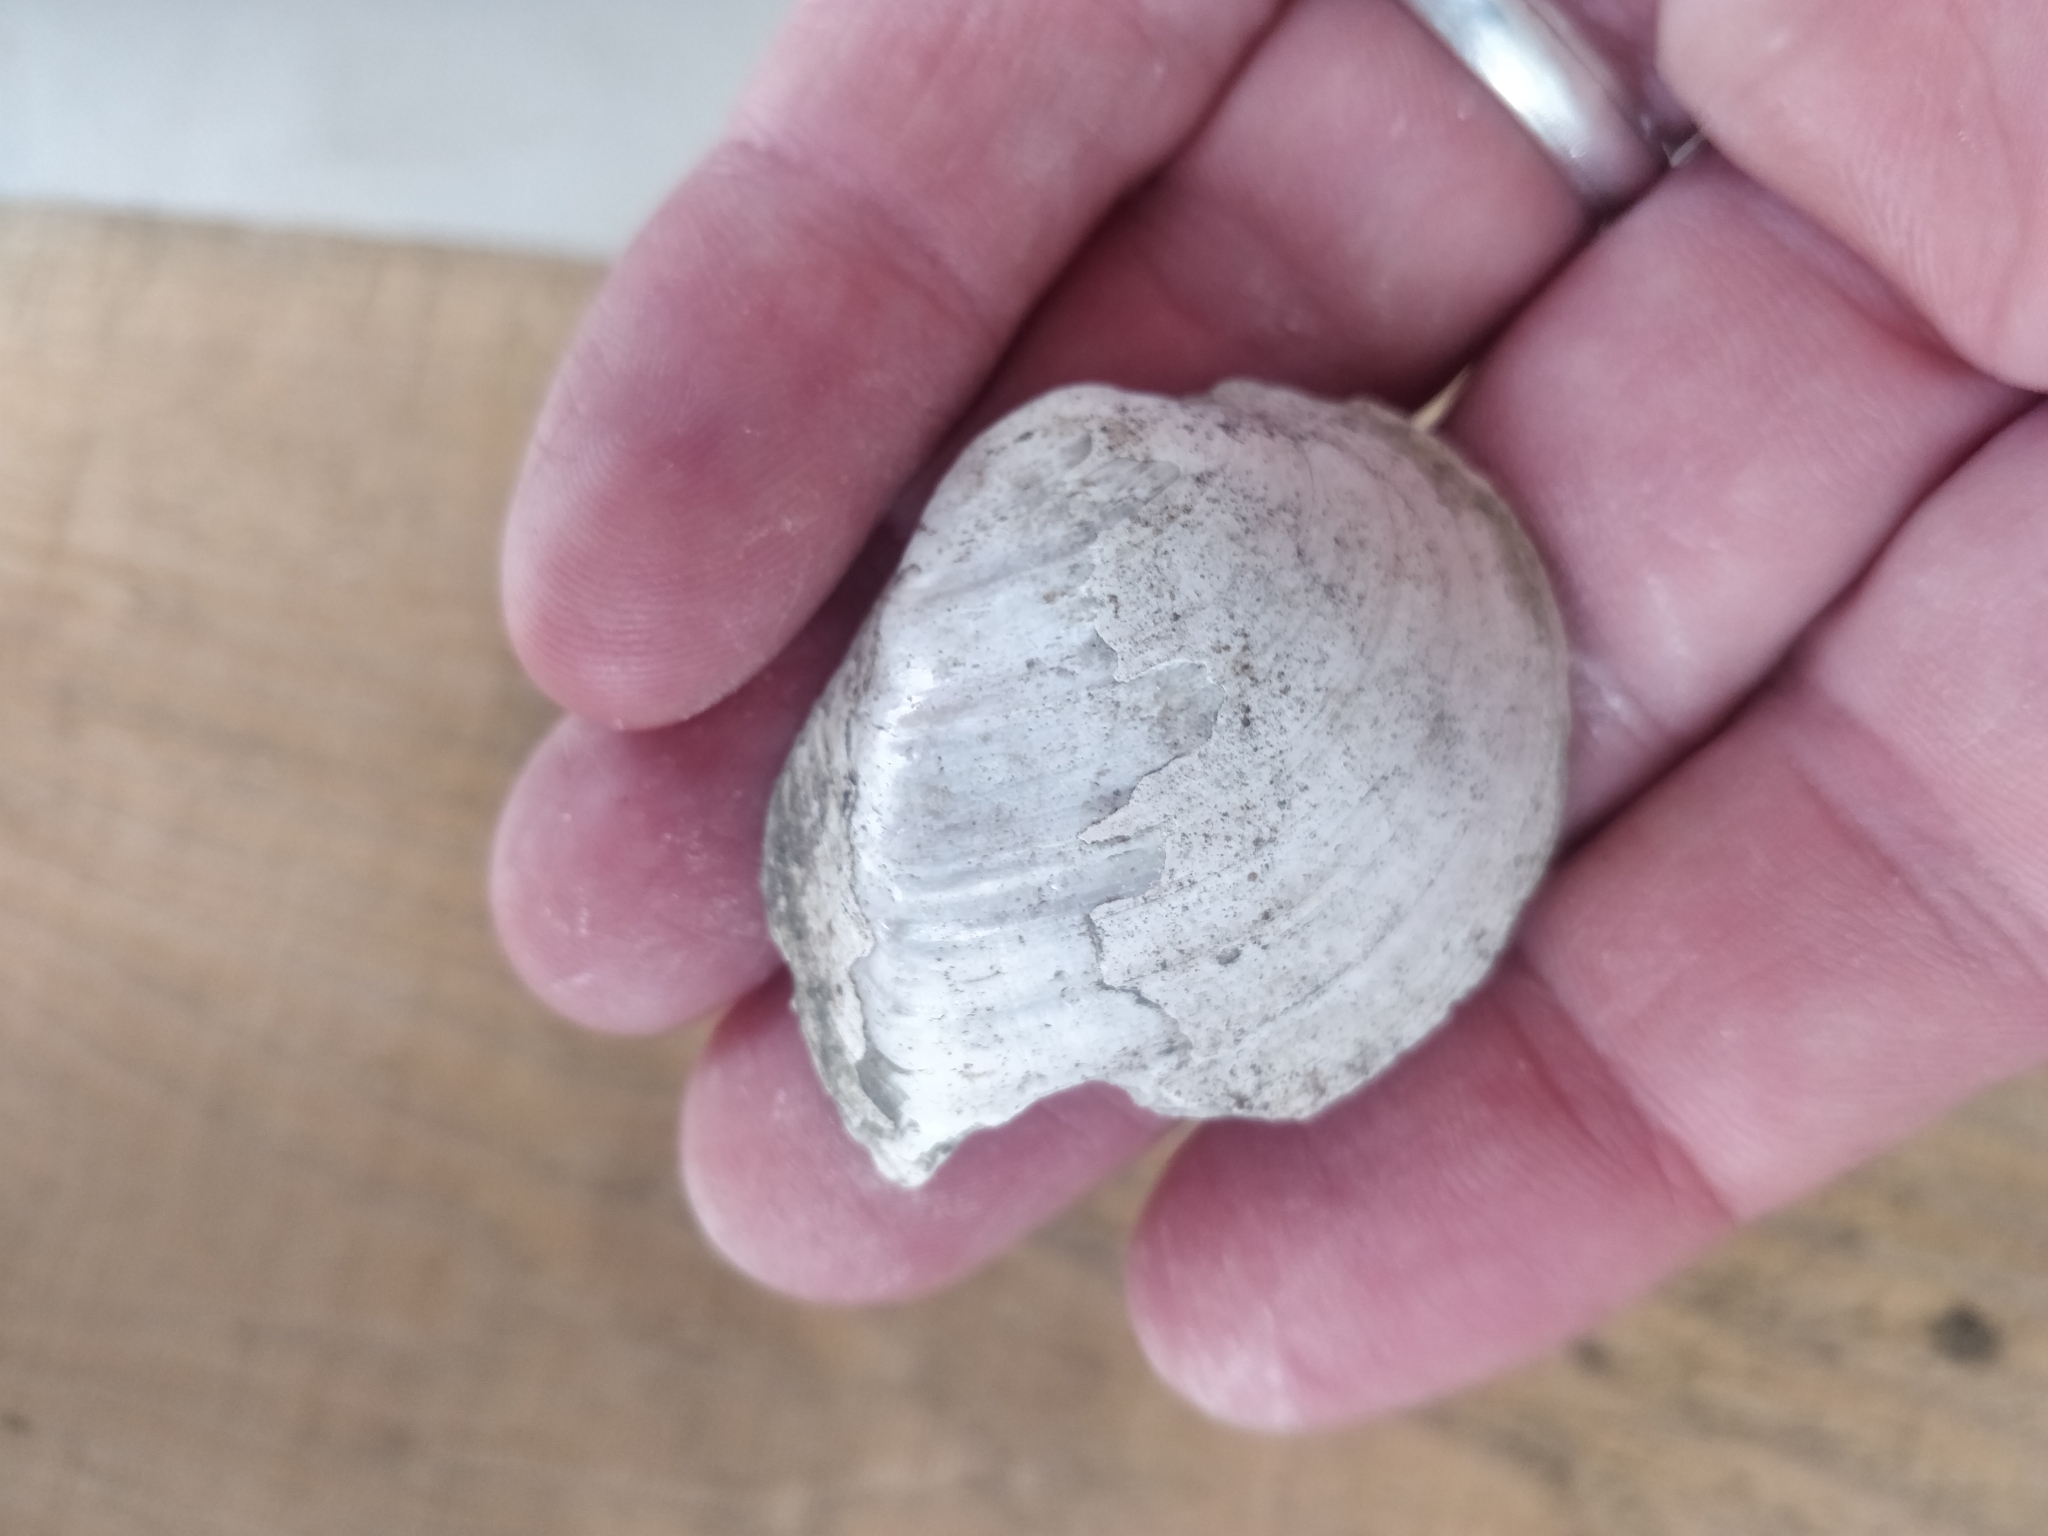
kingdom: Animalia
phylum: Mollusca
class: Bivalvia
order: Unionida
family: Unionidae
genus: Fusconaia
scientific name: Fusconaia flava
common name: Wabash pigtoe
